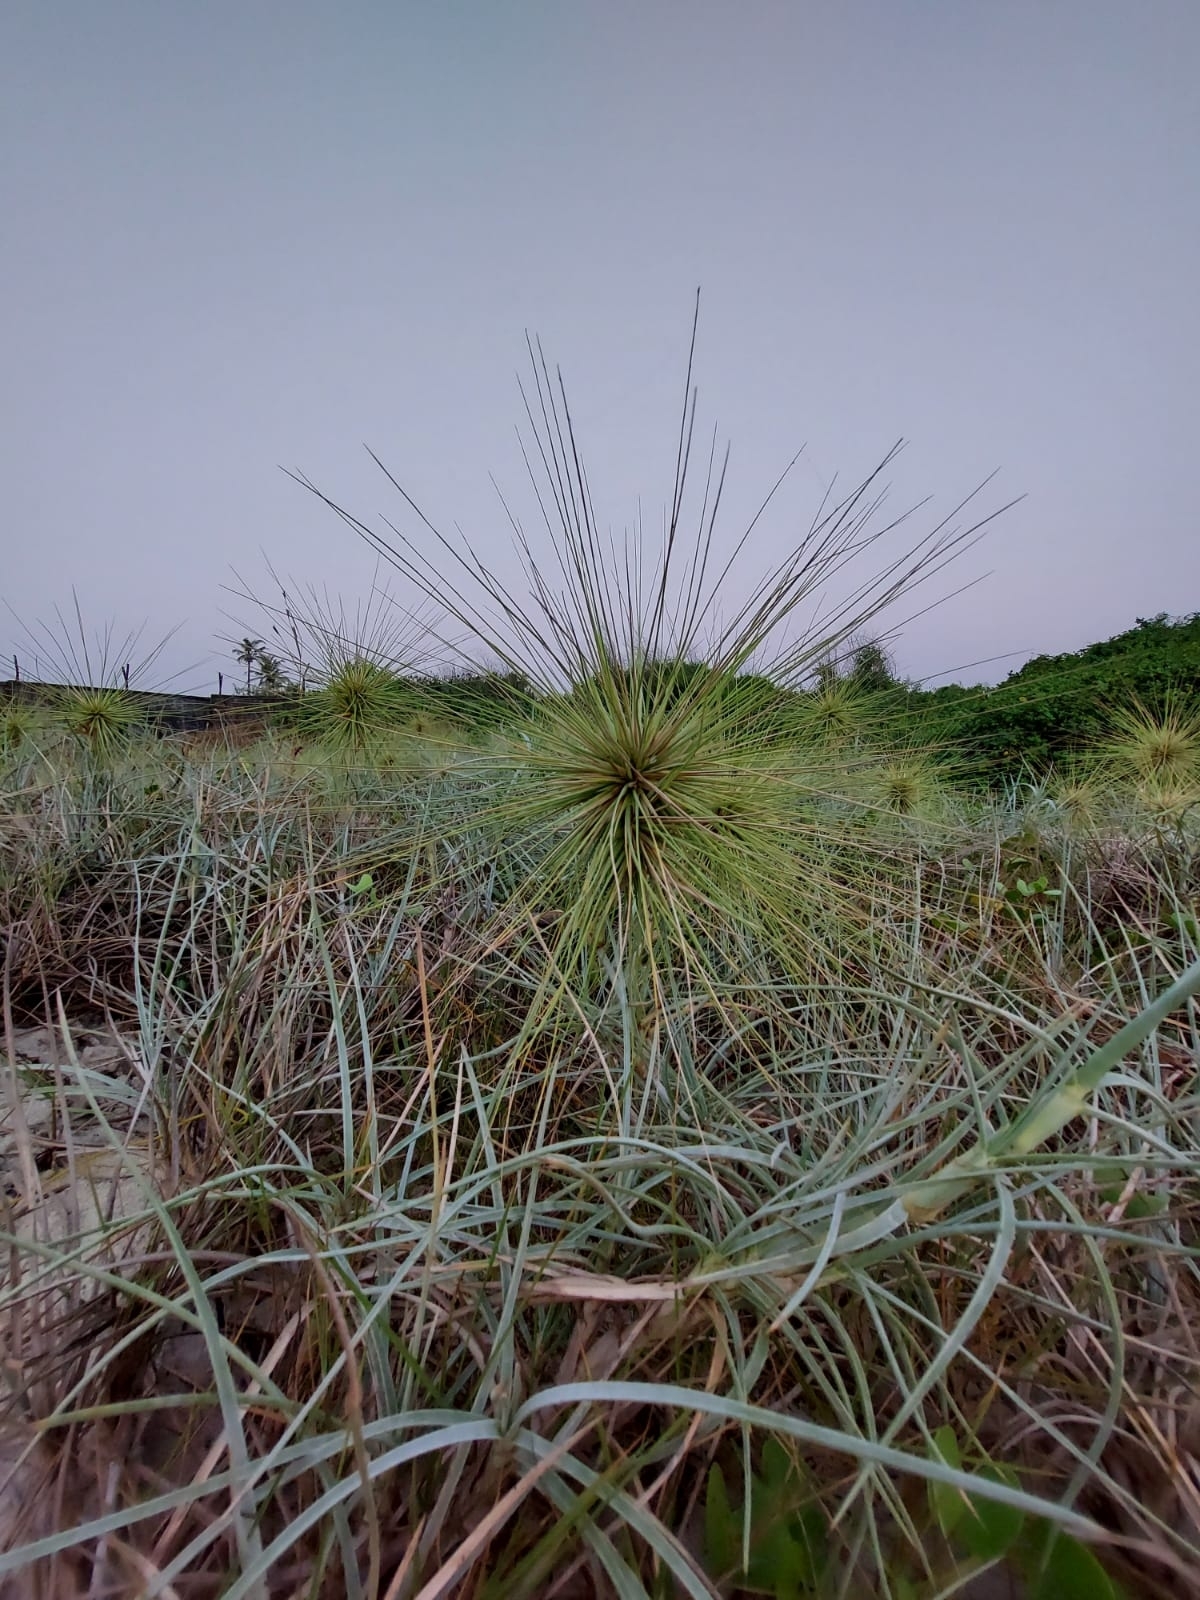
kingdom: Plantae
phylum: Tracheophyta
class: Liliopsida
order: Poales
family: Poaceae
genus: Spinifex
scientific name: Spinifex littoreus
